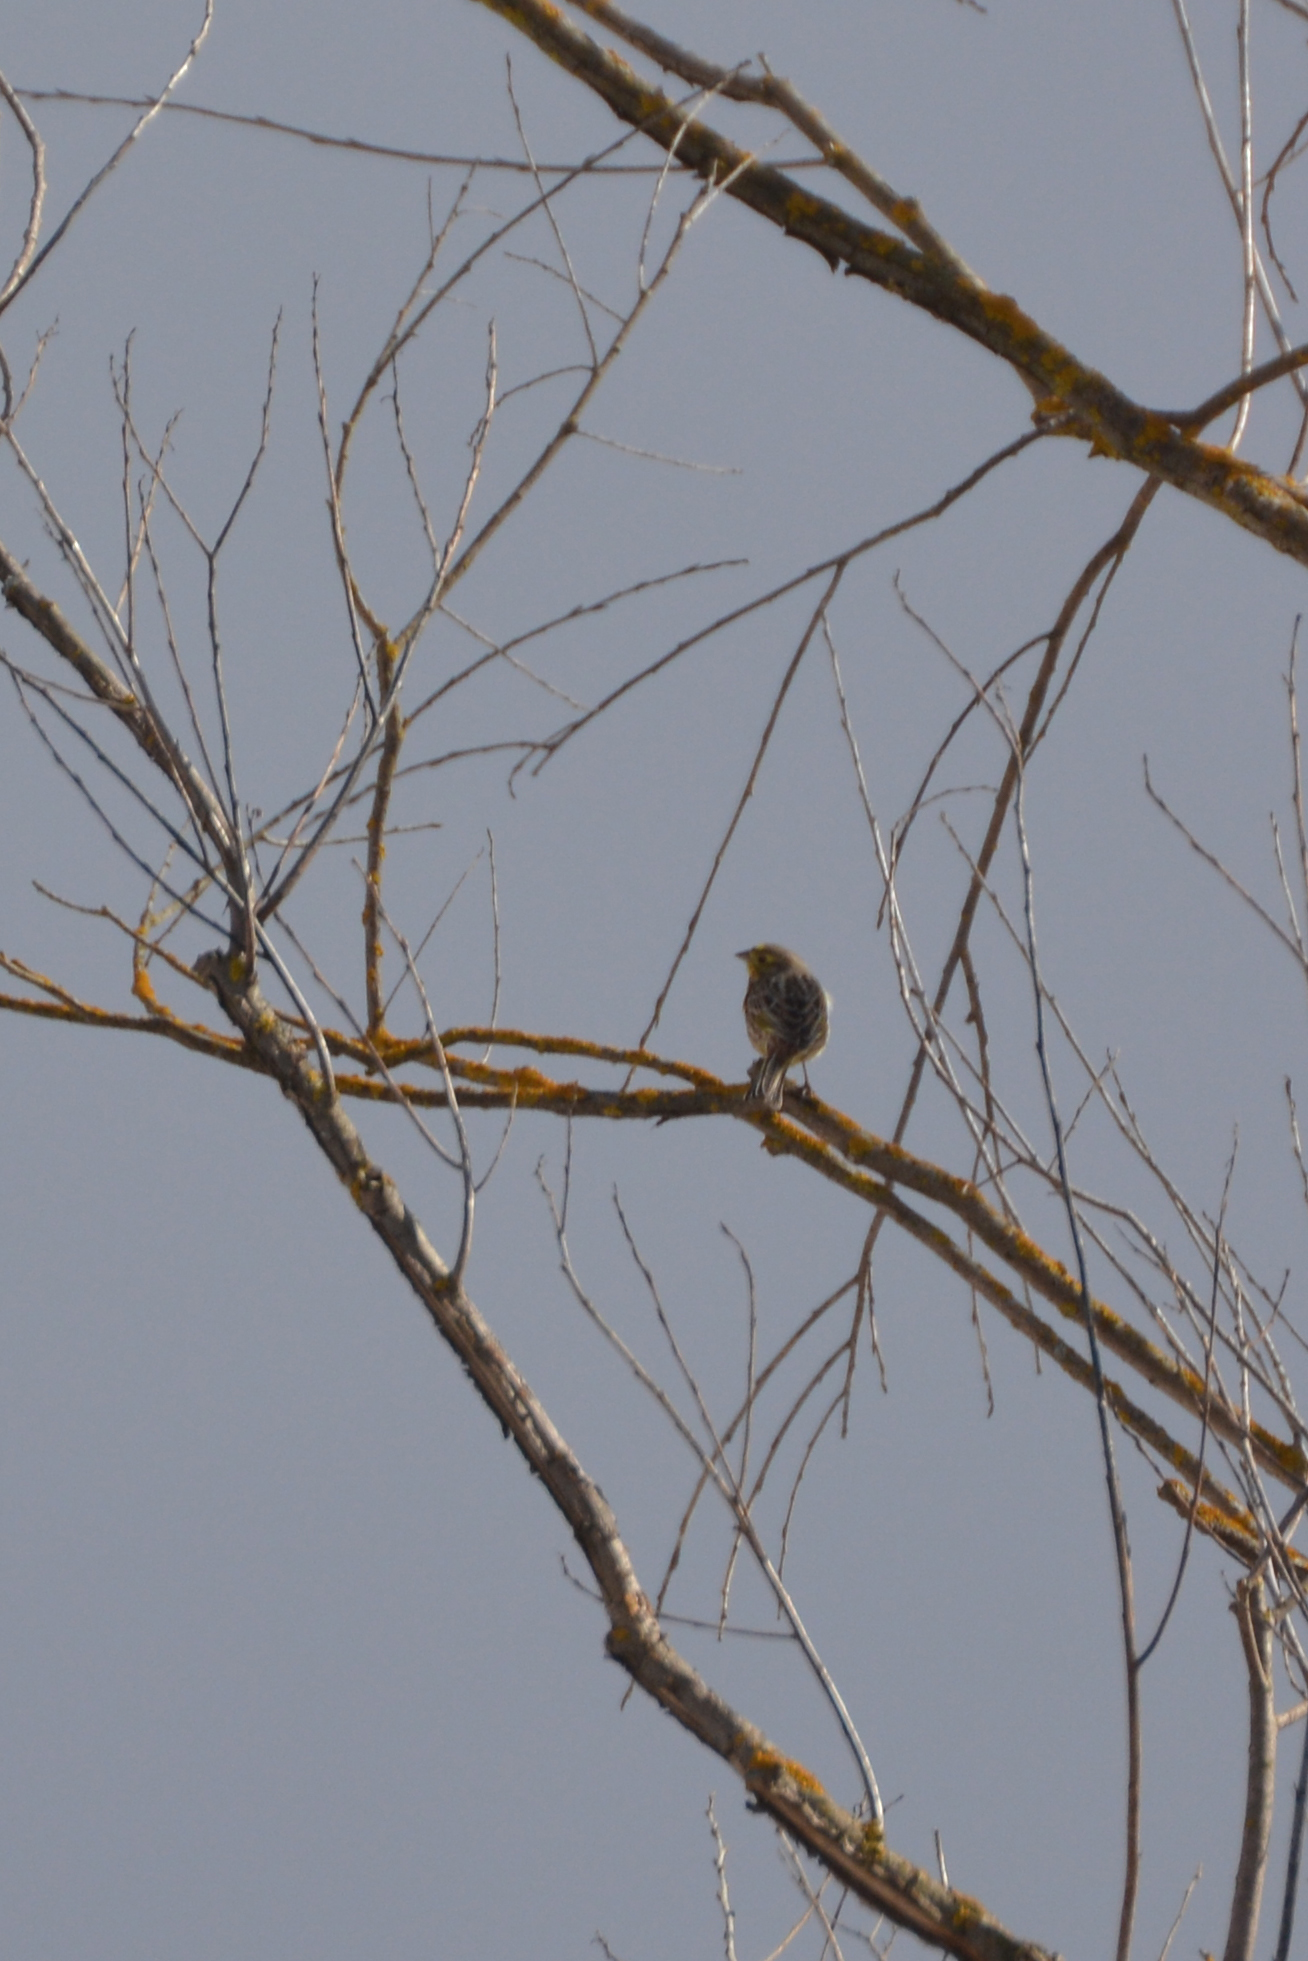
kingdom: Animalia
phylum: Chordata
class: Aves
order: Passeriformes
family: Emberizidae
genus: Emberiza
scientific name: Emberiza citrinella
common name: Yellowhammer
